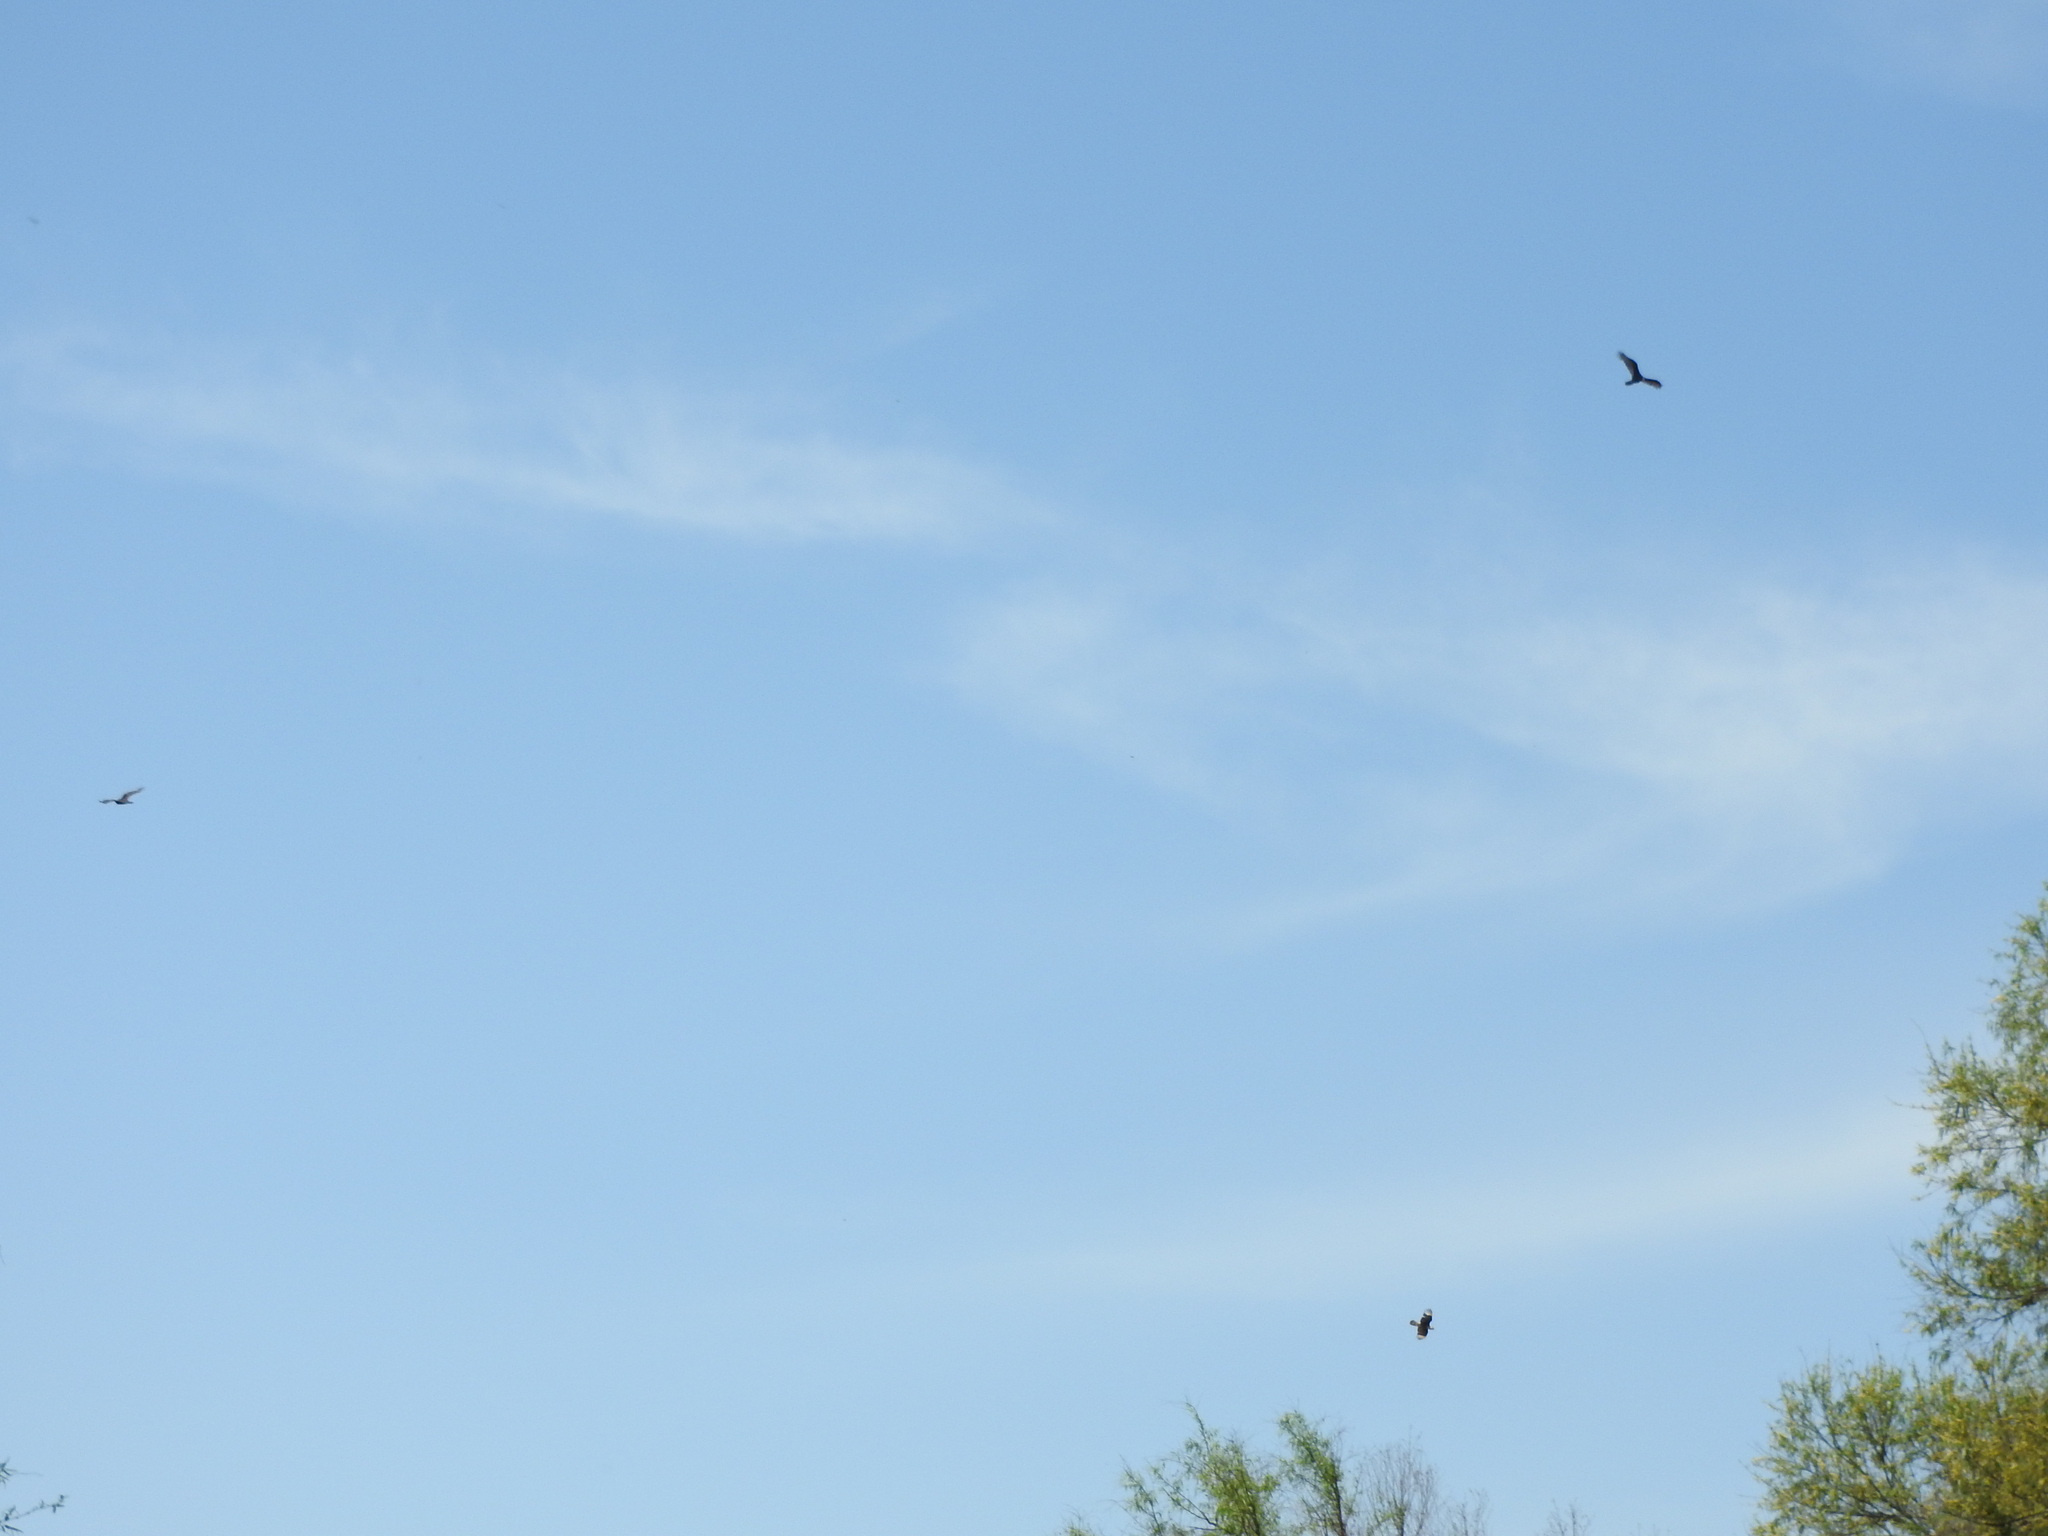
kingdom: Animalia
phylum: Chordata
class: Aves
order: Accipitriformes
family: Cathartidae
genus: Cathartes
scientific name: Cathartes aura
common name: Turkey vulture
